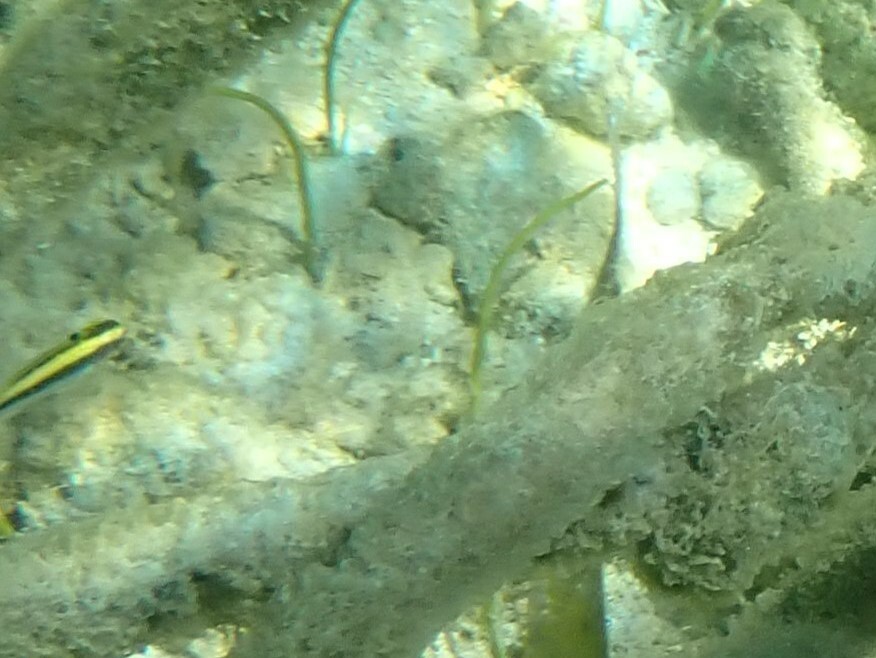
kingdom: Animalia
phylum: Chordata
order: Perciformes
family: Labridae
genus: Thalassoma
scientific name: Thalassoma bifasciatum
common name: Bluehead wrasse
